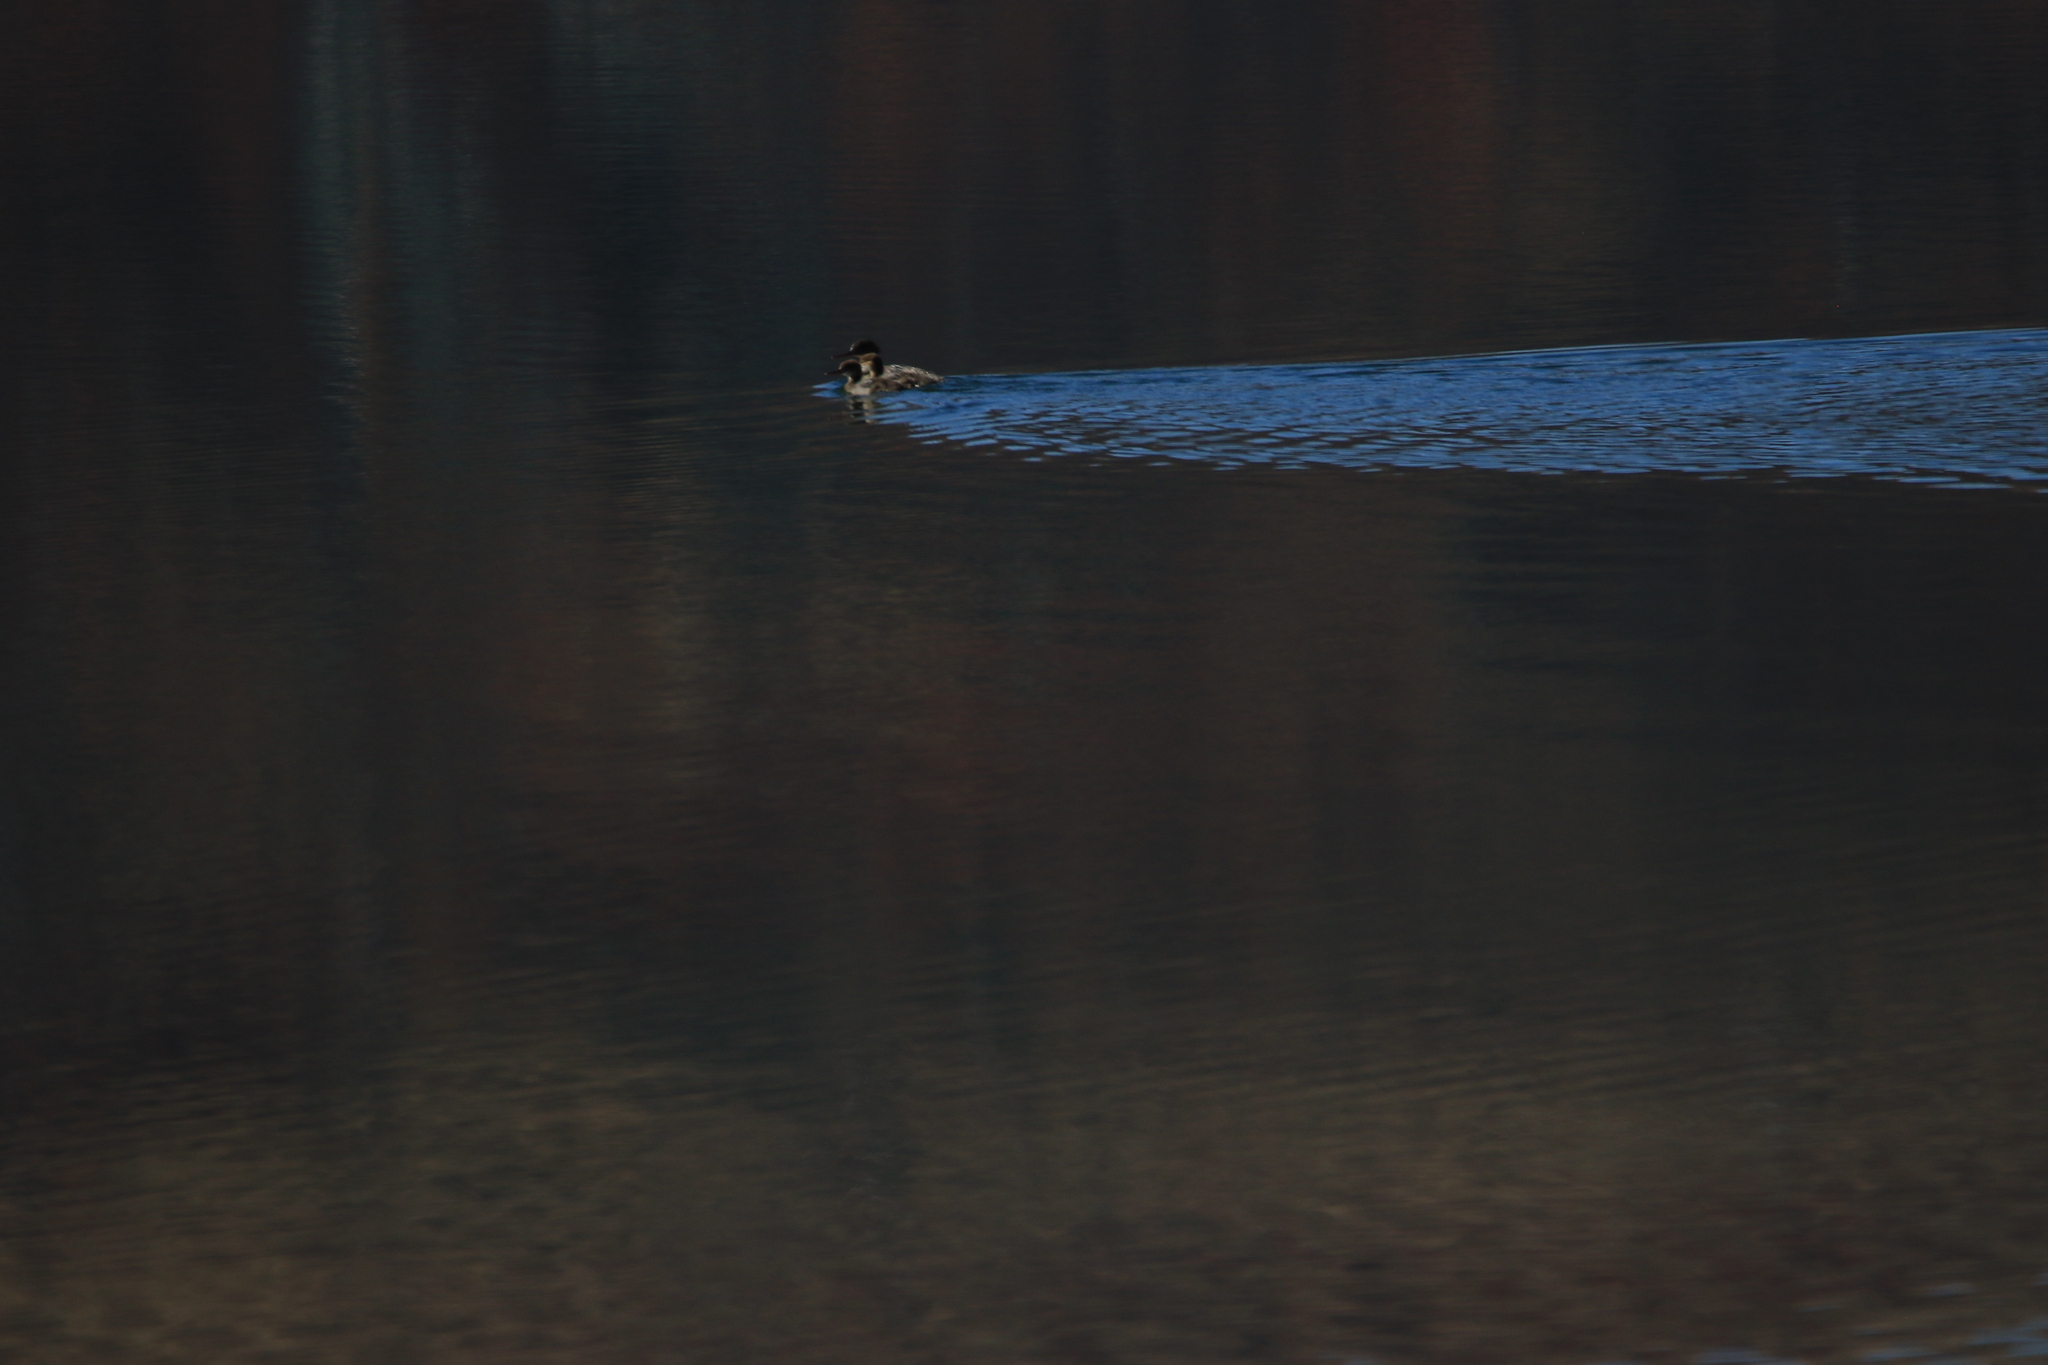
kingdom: Animalia
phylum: Chordata
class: Aves
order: Anseriformes
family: Anatidae
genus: Mergus
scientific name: Mergus serrator
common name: Red-breasted merganser
